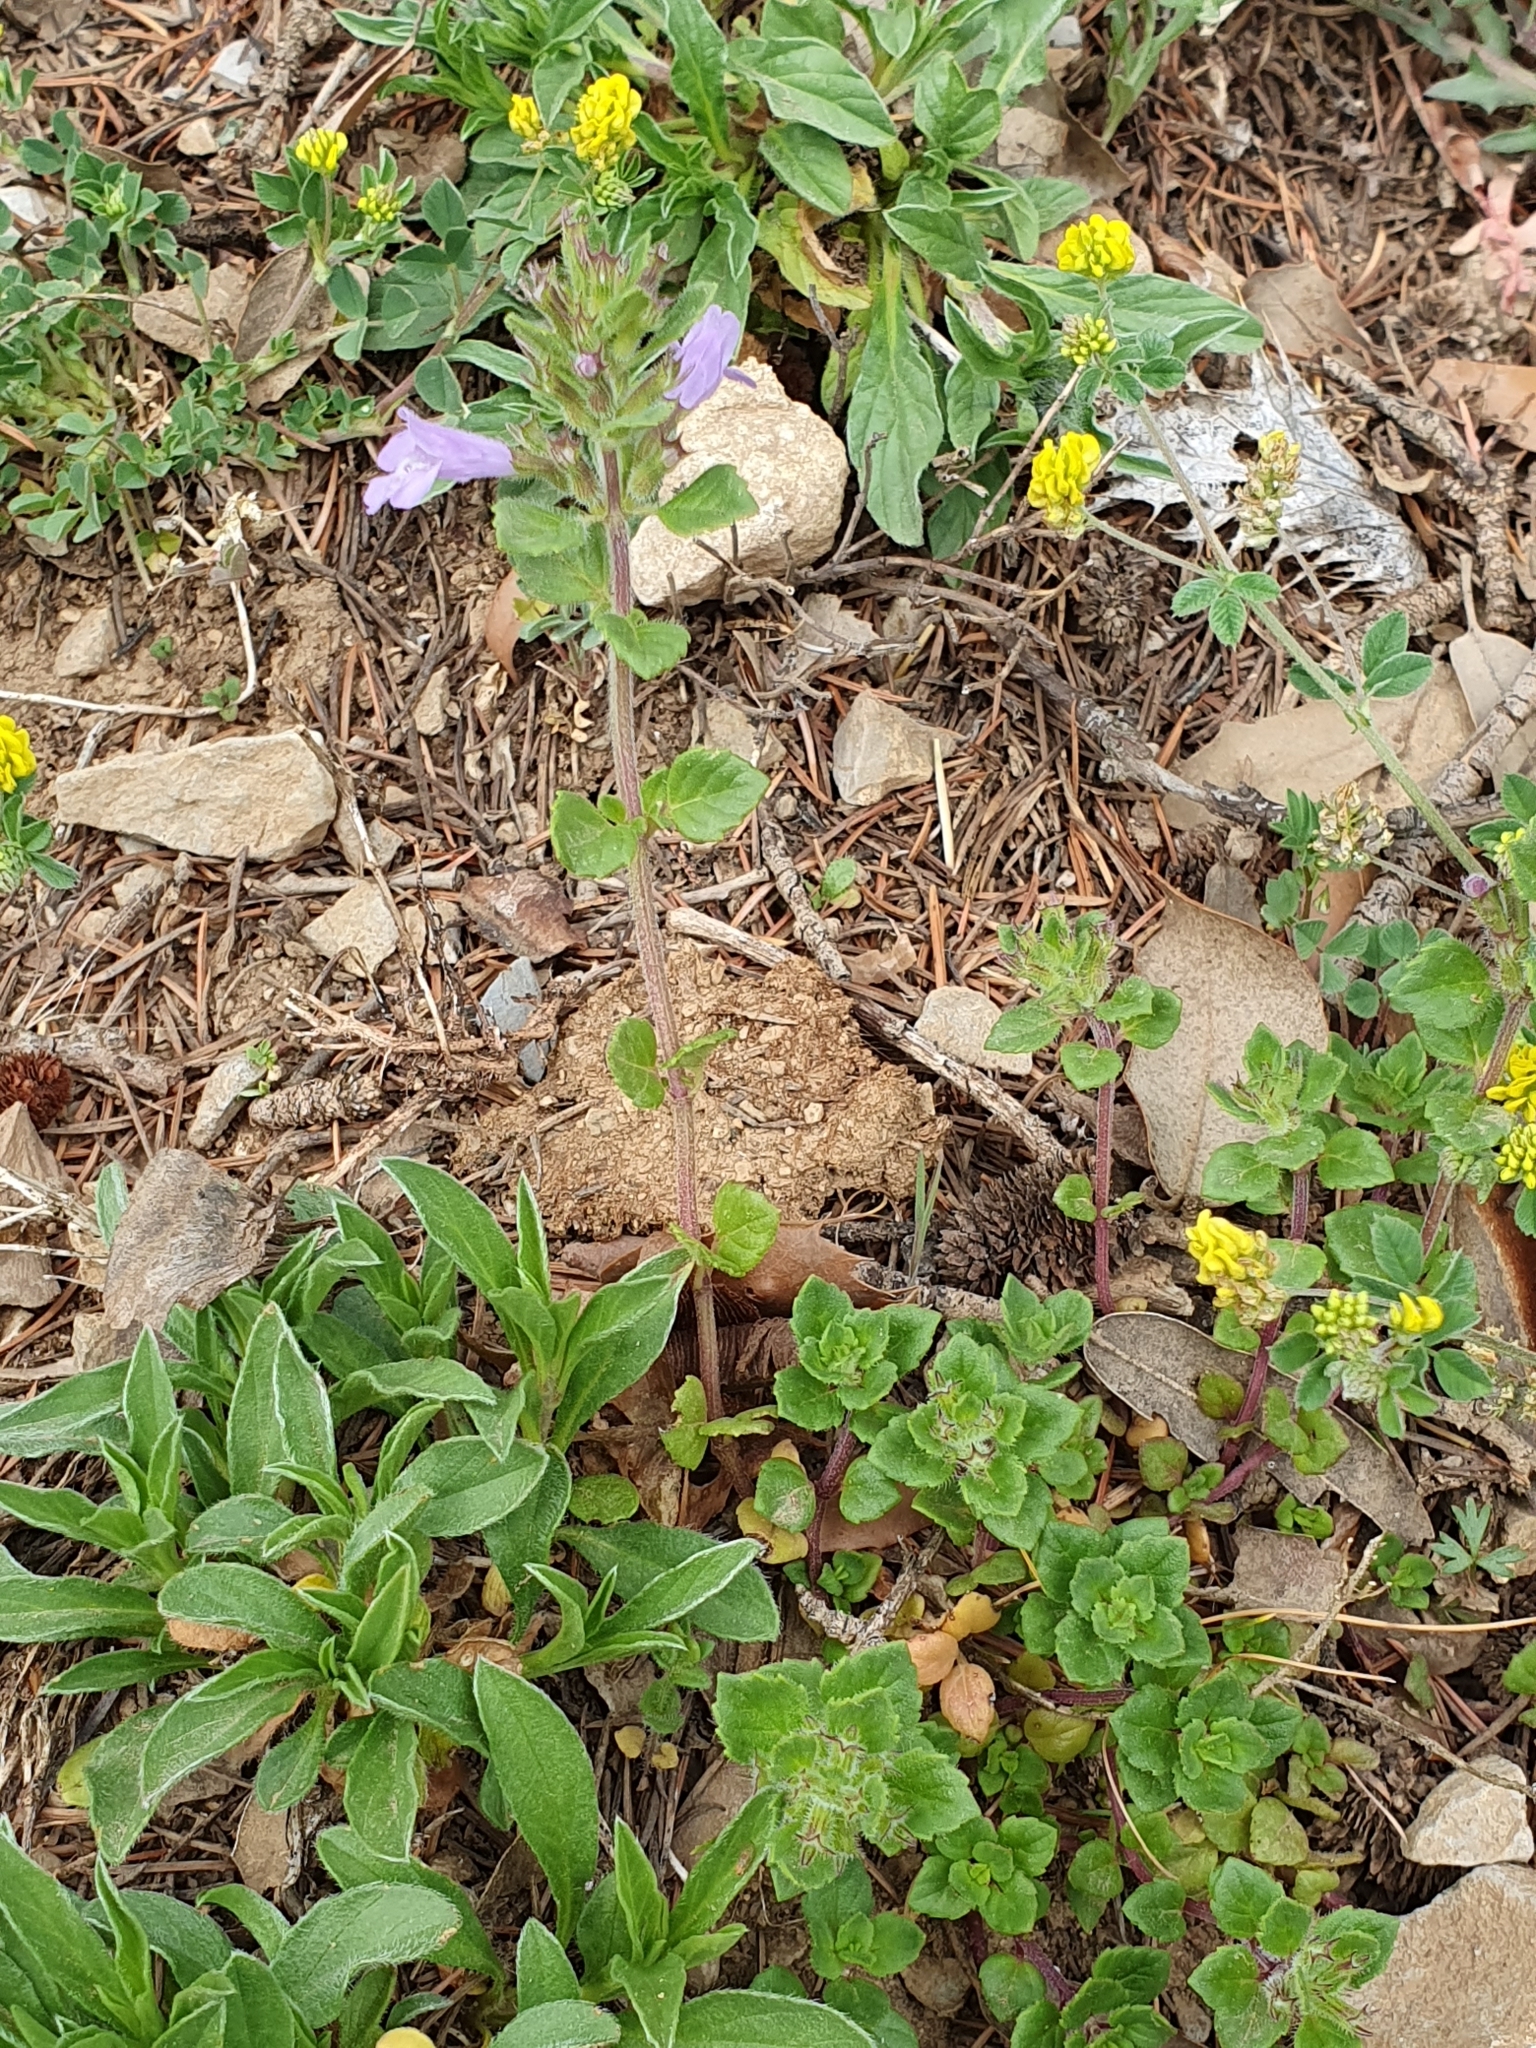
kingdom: Plantae
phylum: Tracheophyta
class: Magnoliopsida
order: Lamiales
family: Lamiaceae
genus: Clinopodium
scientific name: Clinopodium alpinum
